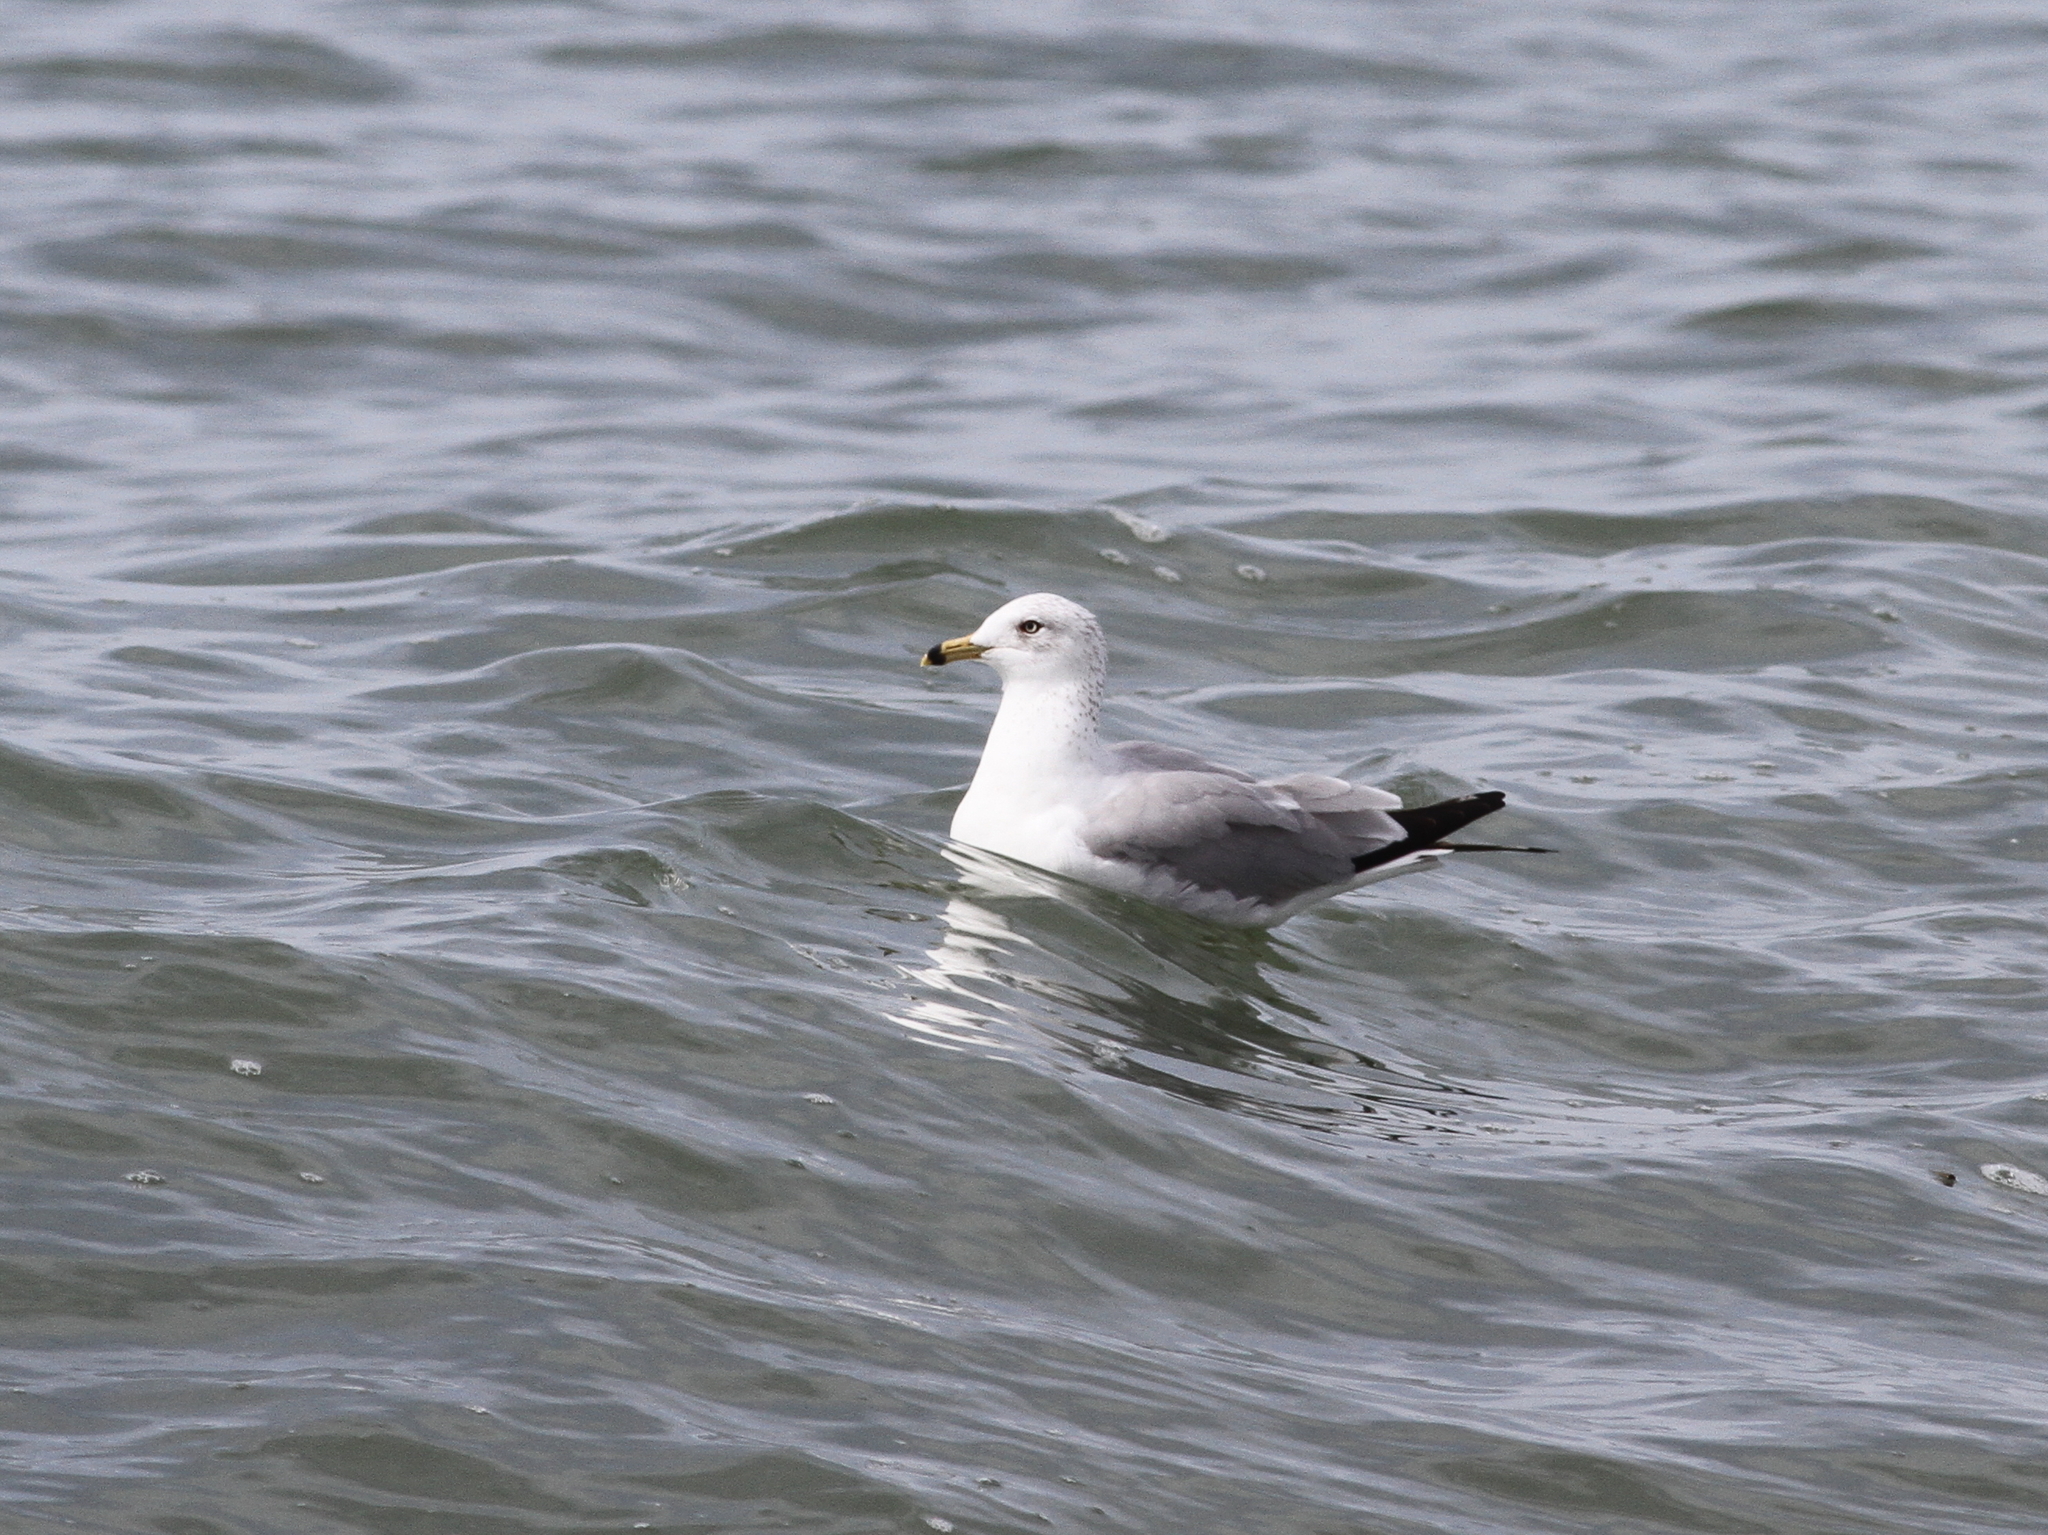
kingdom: Animalia
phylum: Chordata
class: Aves
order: Charadriiformes
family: Laridae
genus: Larus
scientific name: Larus delawarensis
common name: Ring-billed gull
